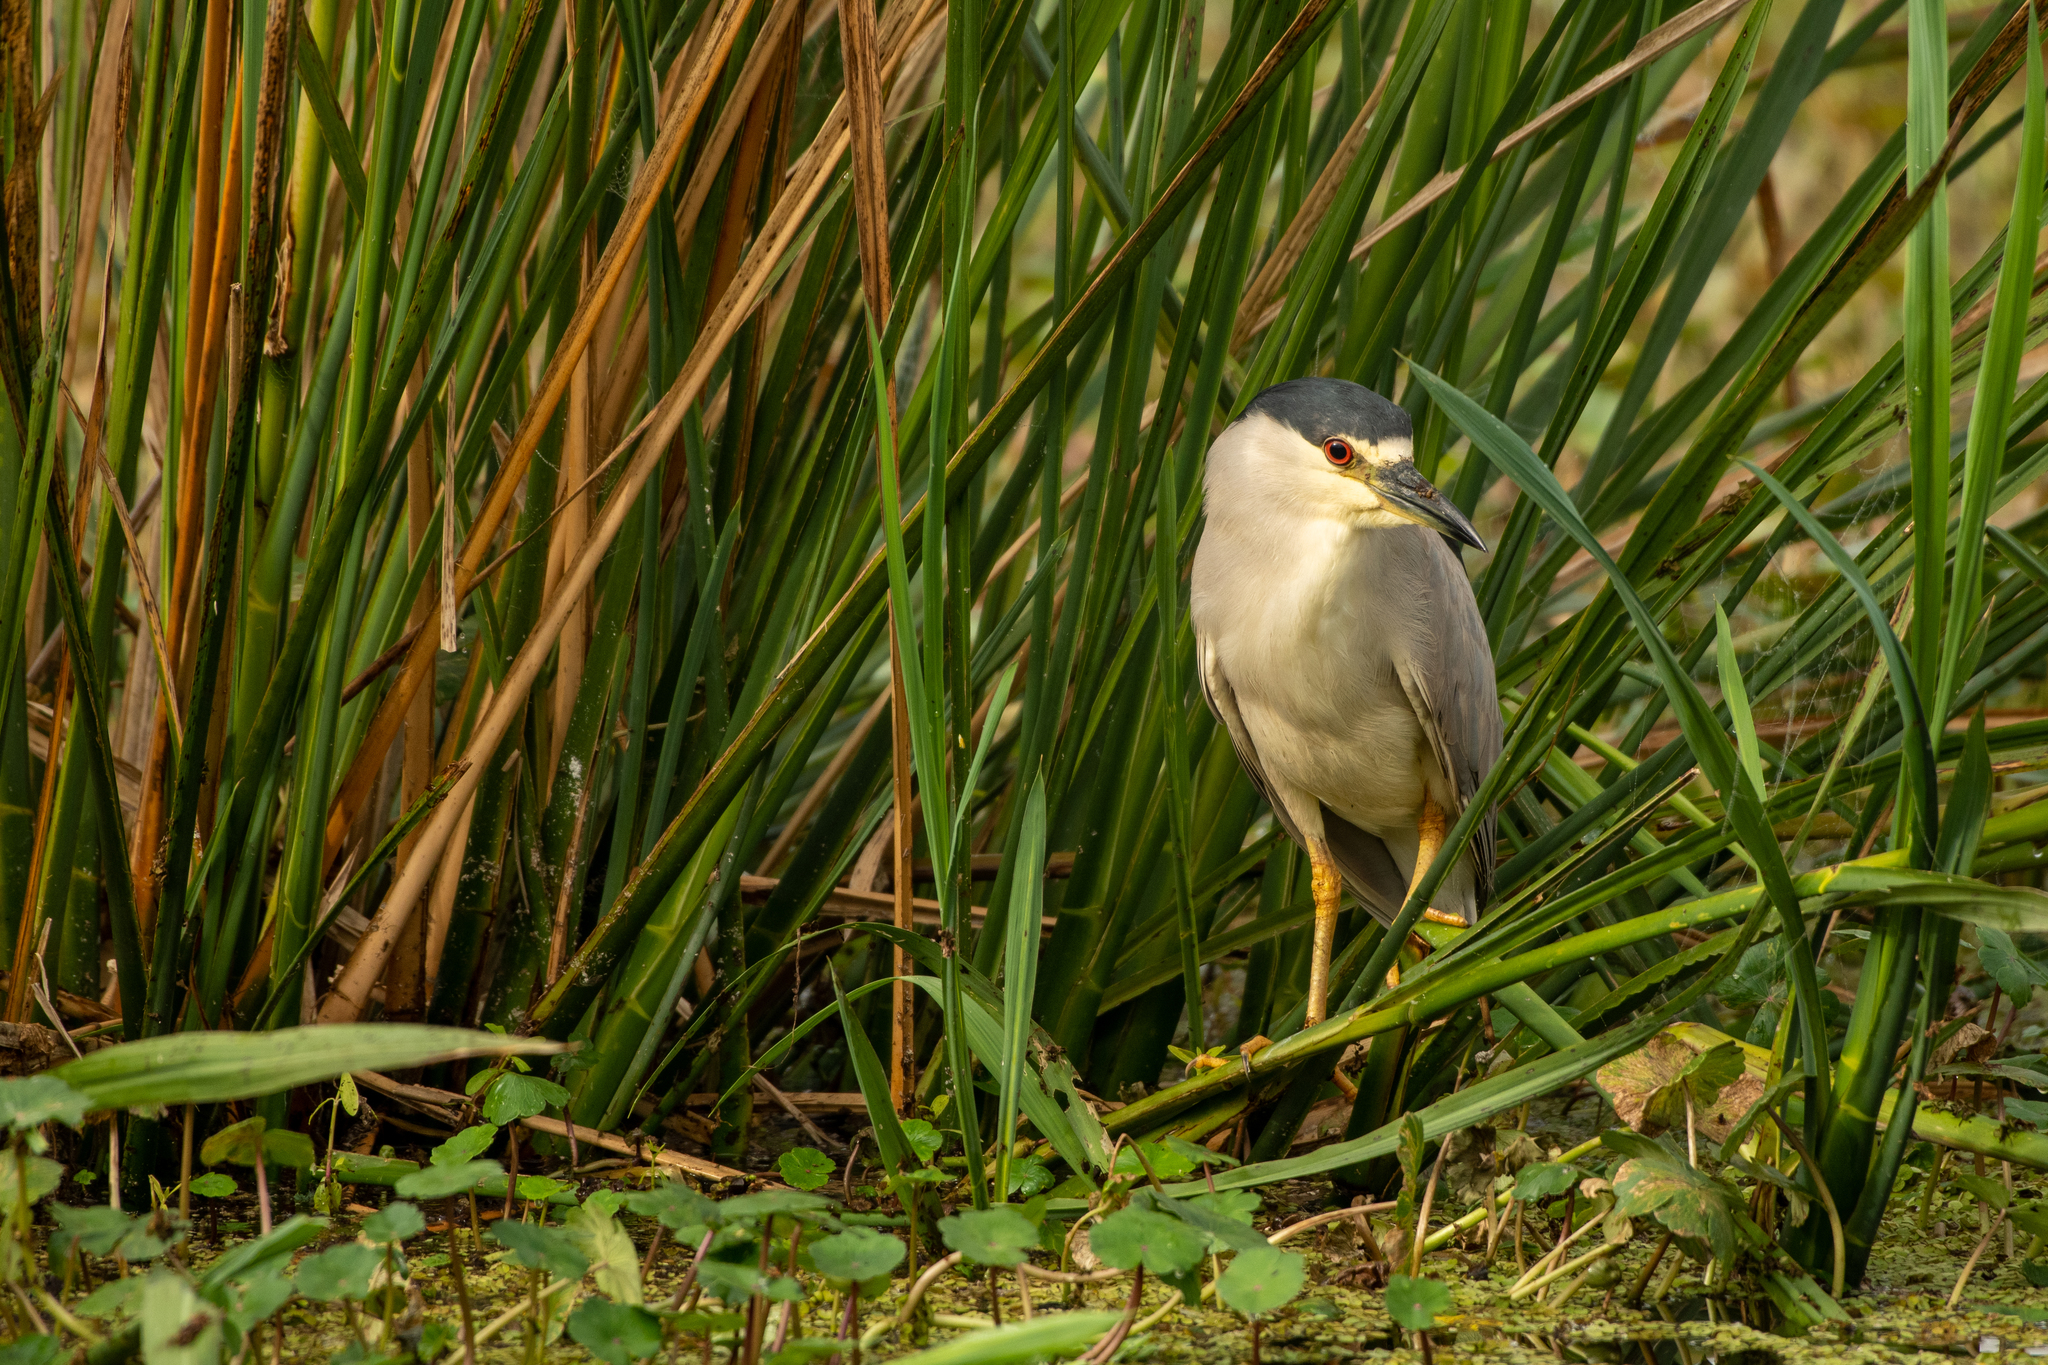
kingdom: Animalia
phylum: Chordata
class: Aves
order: Pelecaniformes
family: Ardeidae
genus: Nycticorax
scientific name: Nycticorax nycticorax
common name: Black-crowned night heron
